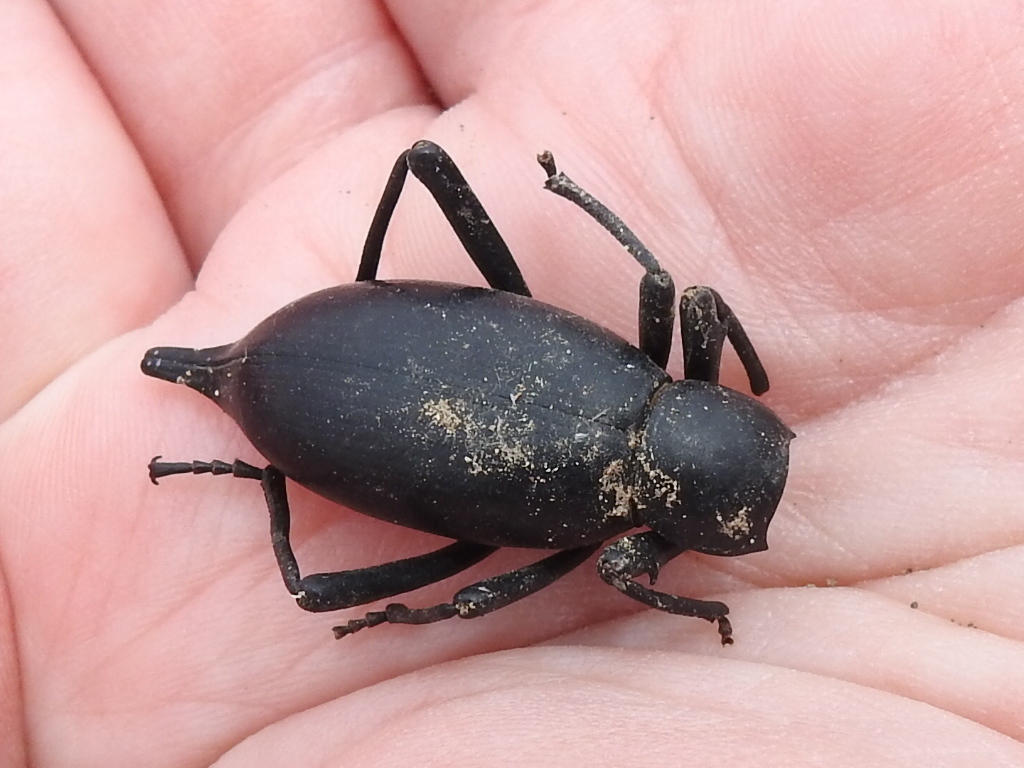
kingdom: Animalia
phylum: Arthropoda
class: Insecta
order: Coleoptera
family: Tenebrionidae
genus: Eleodes
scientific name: Eleodes spinipes
